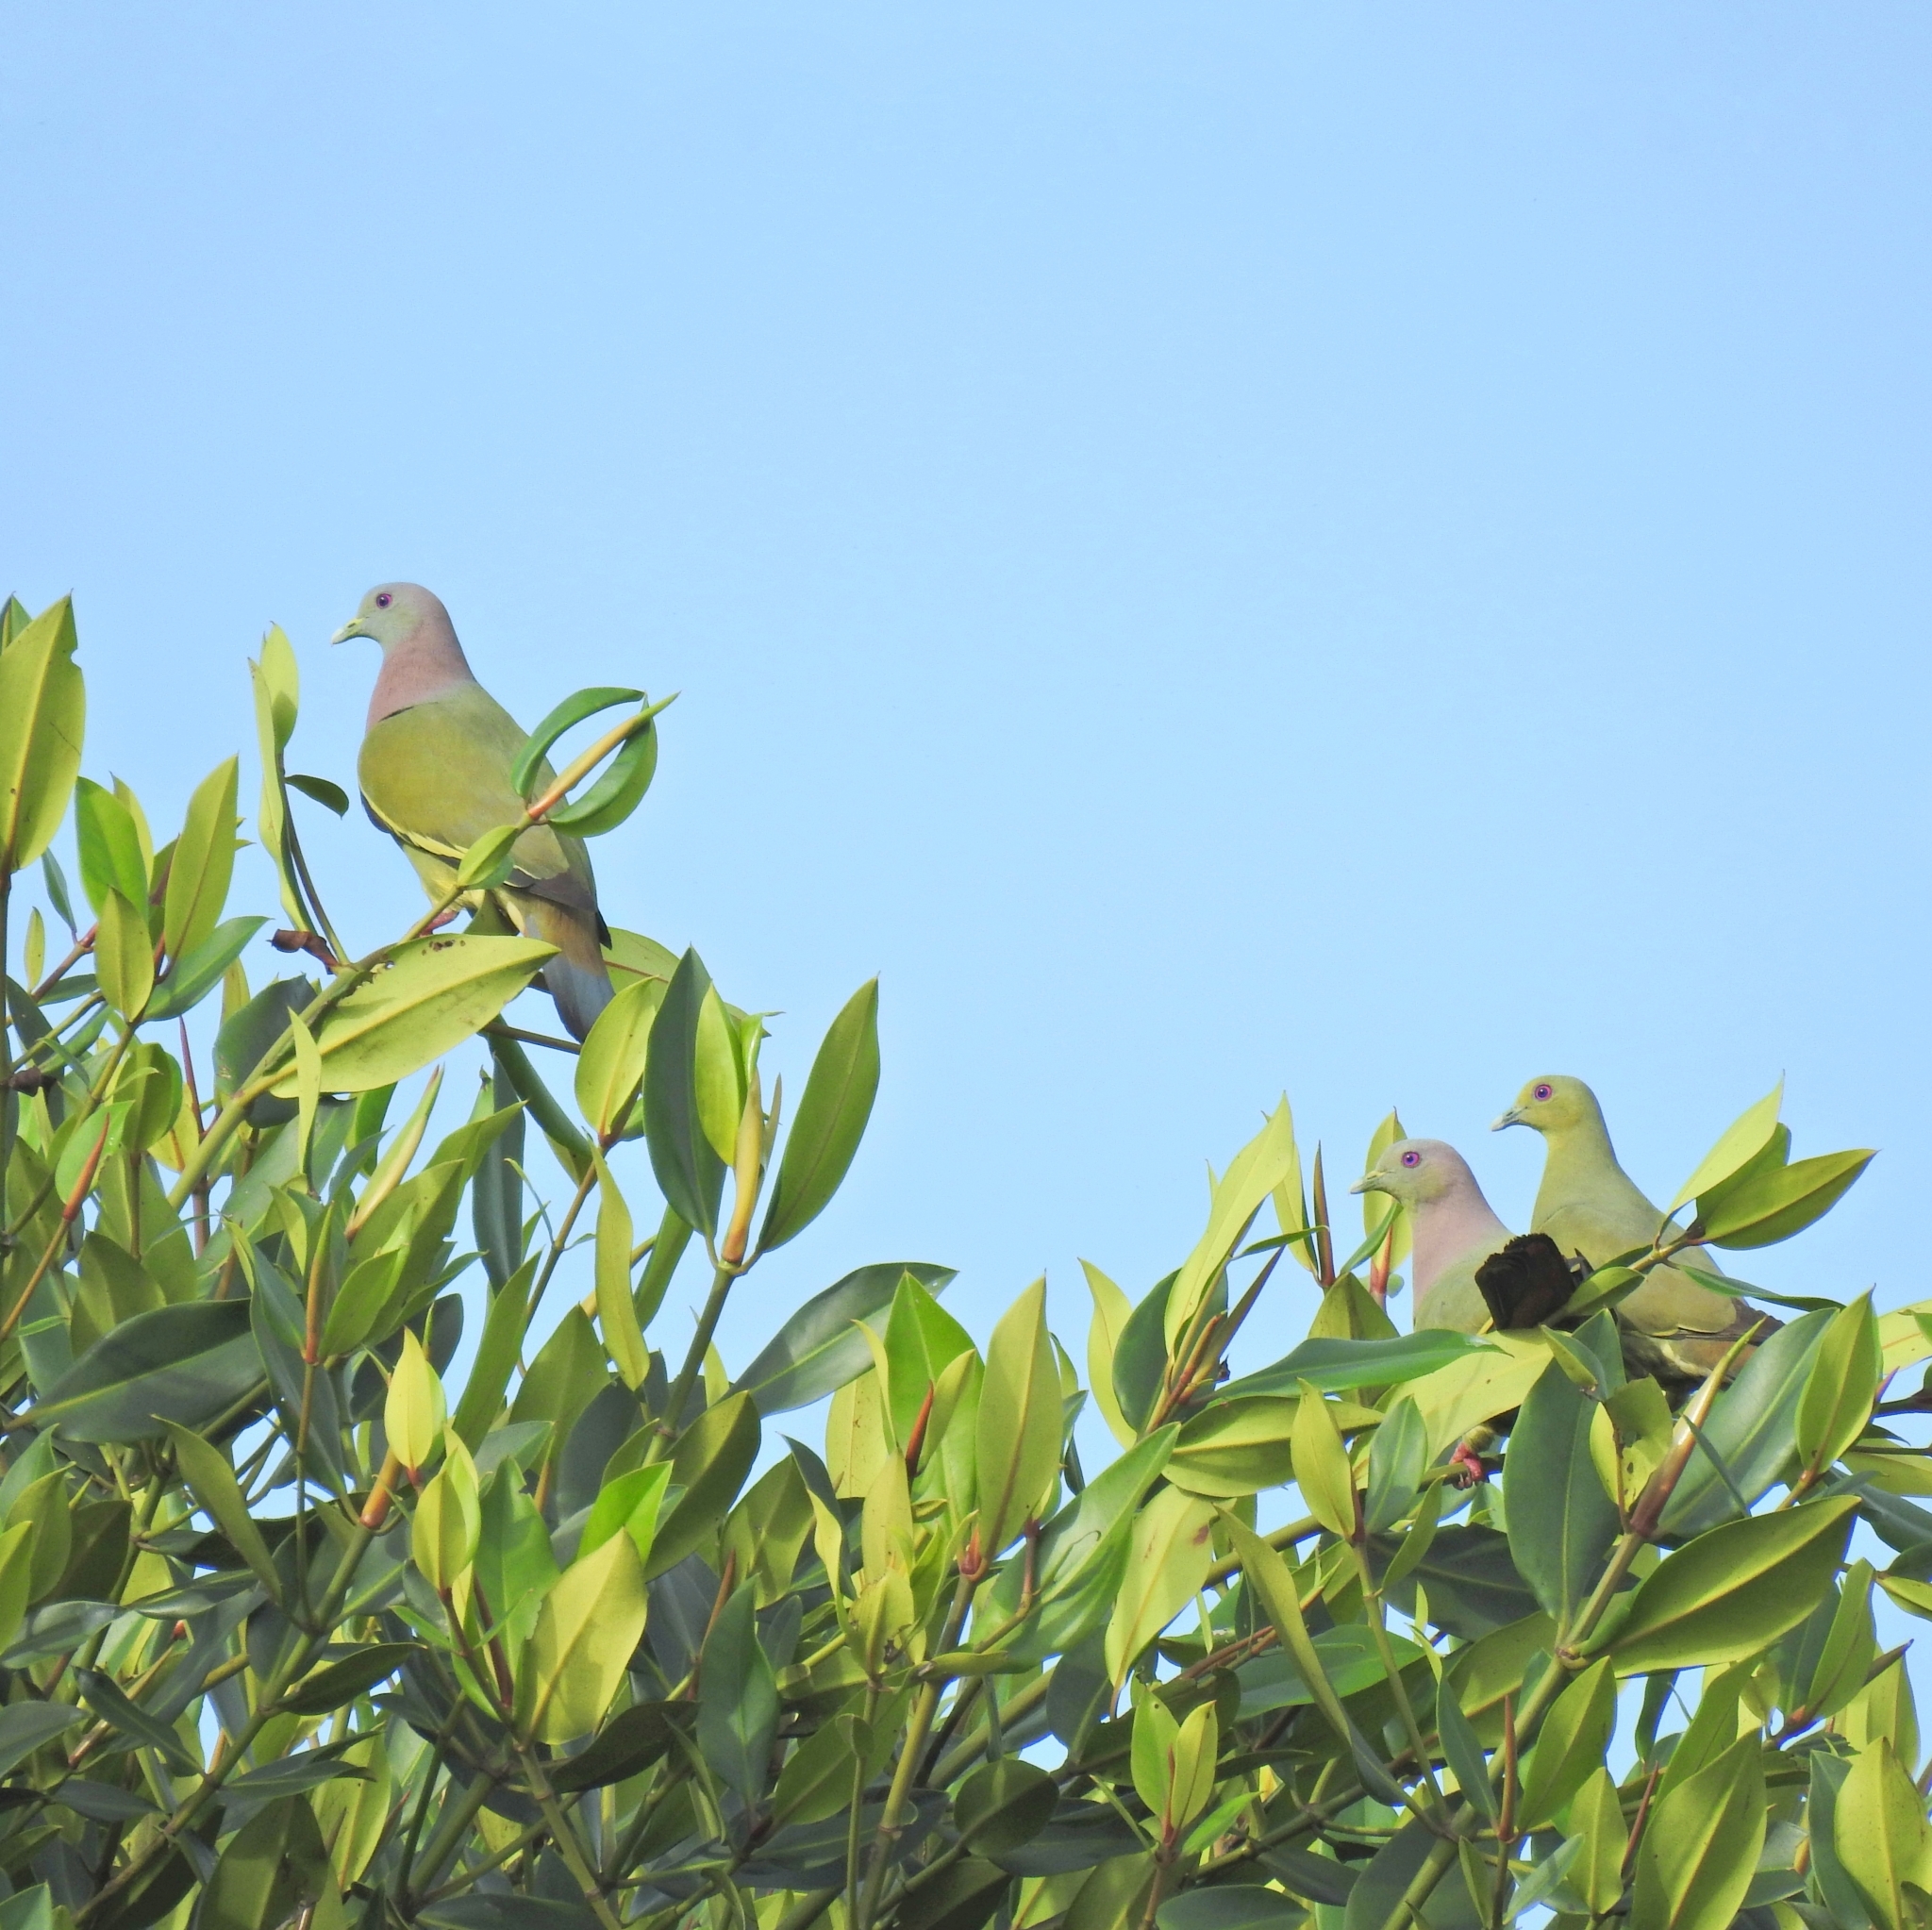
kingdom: Animalia
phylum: Chordata
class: Aves
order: Columbiformes
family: Columbidae
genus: Treron
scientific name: Treron vernans
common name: Pink-necked green pigeon
